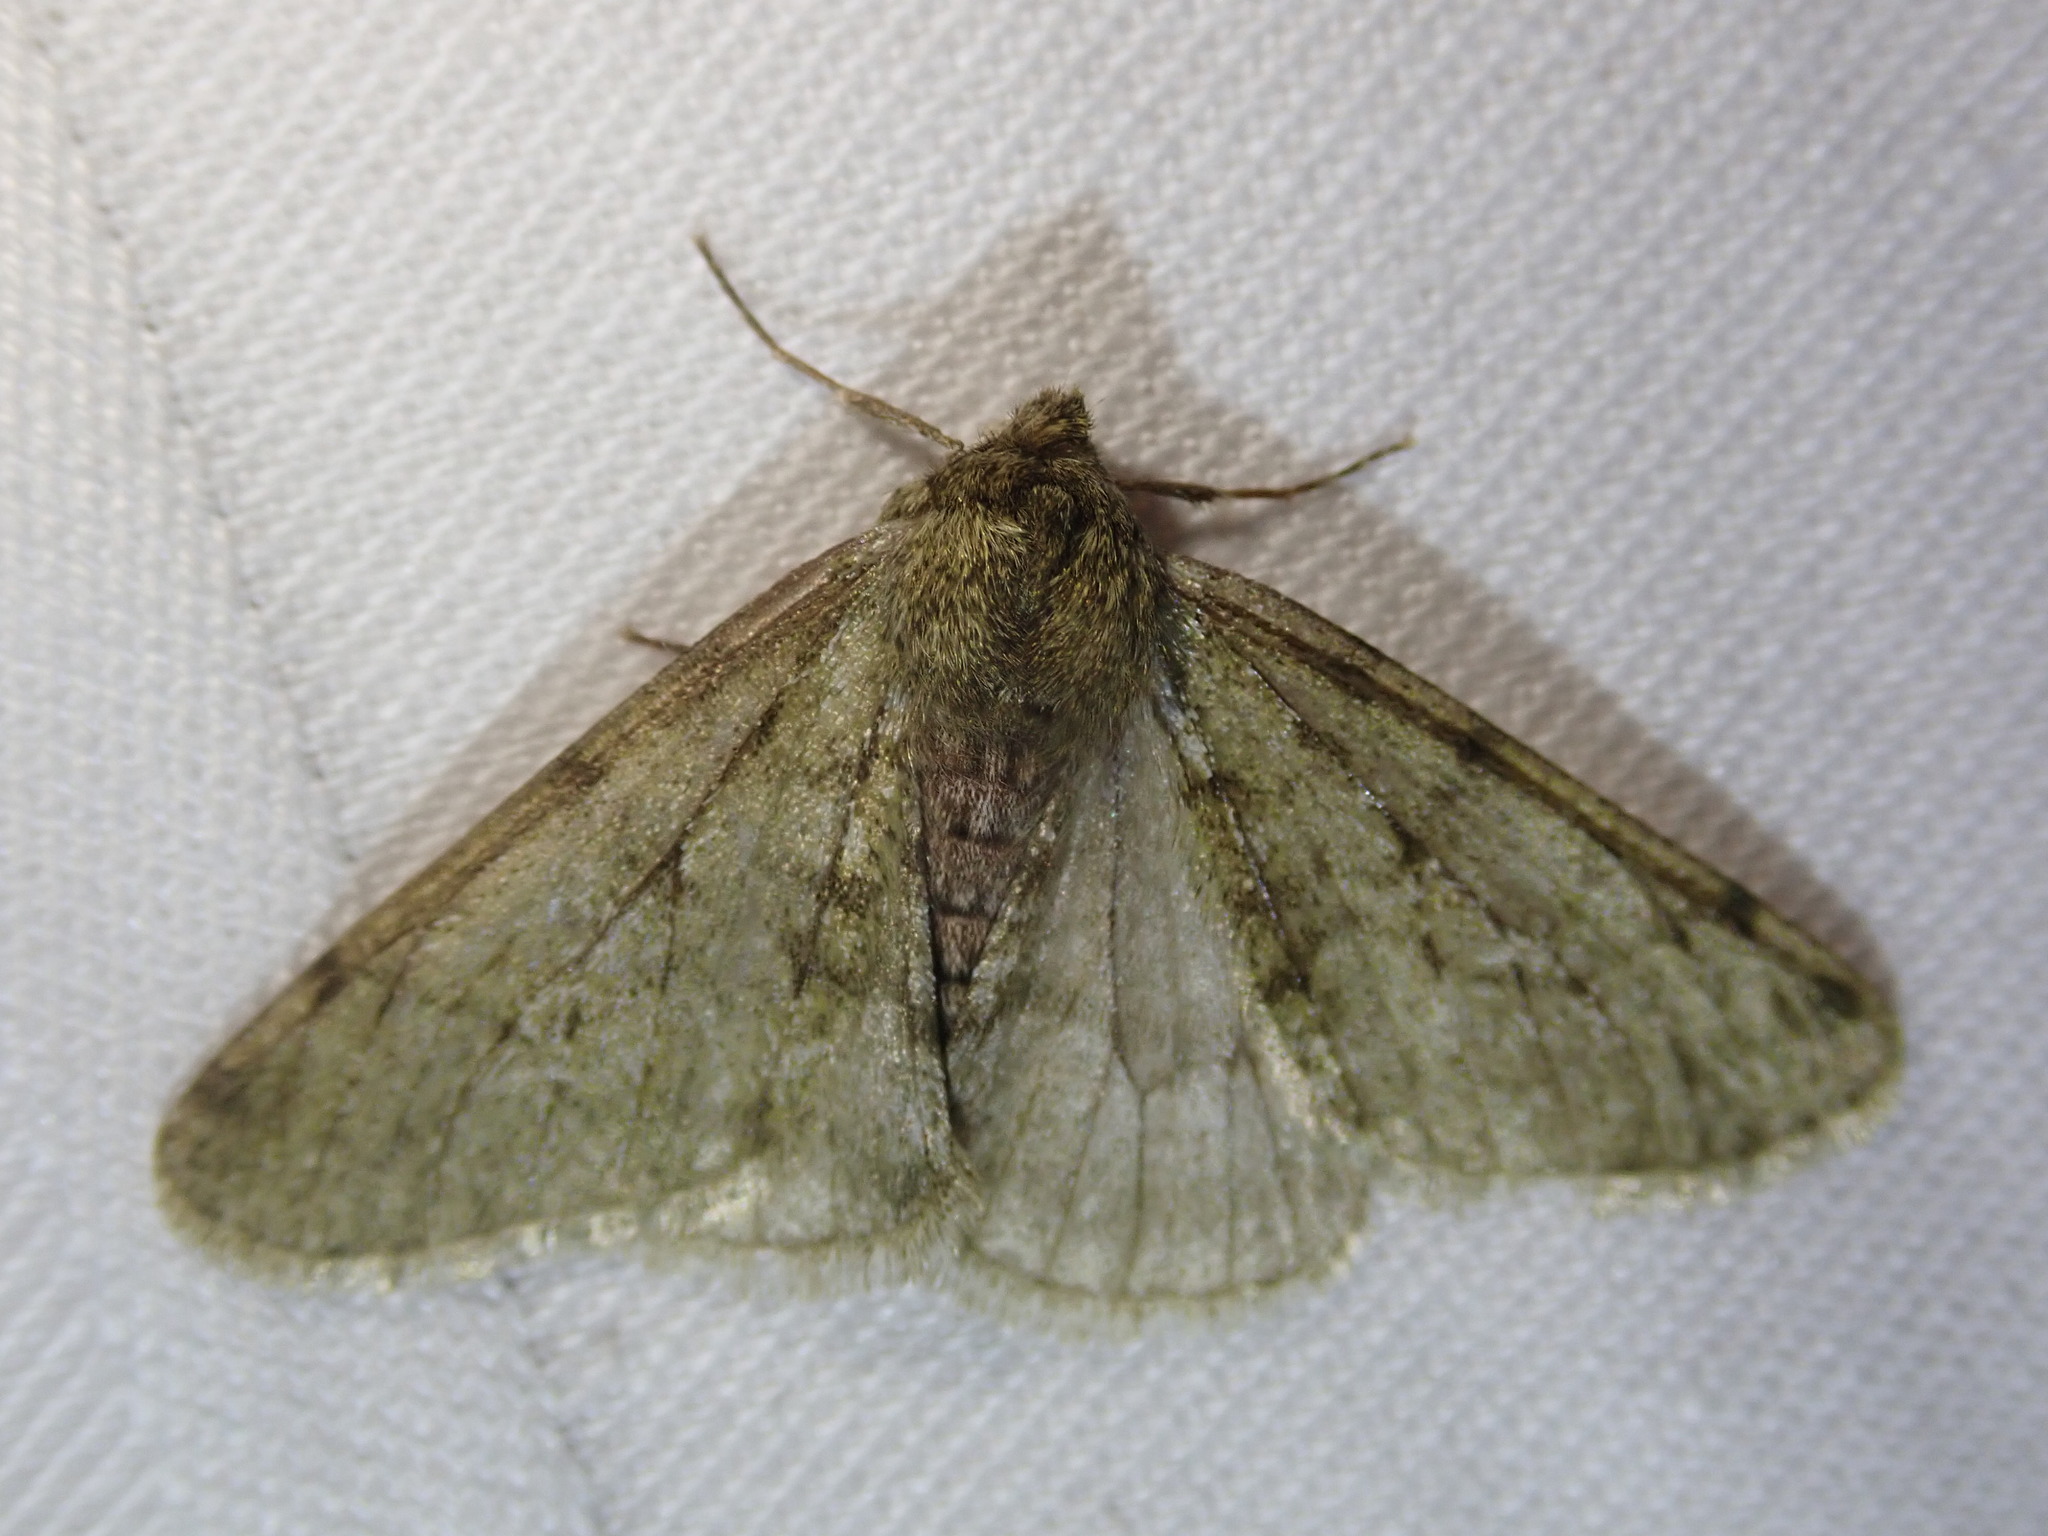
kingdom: Animalia
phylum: Arthropoda
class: Insecta
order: Lepidoptera
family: Geometridae
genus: Phigalia
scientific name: Phigalia pilosaria
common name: Pale brindled beauty
